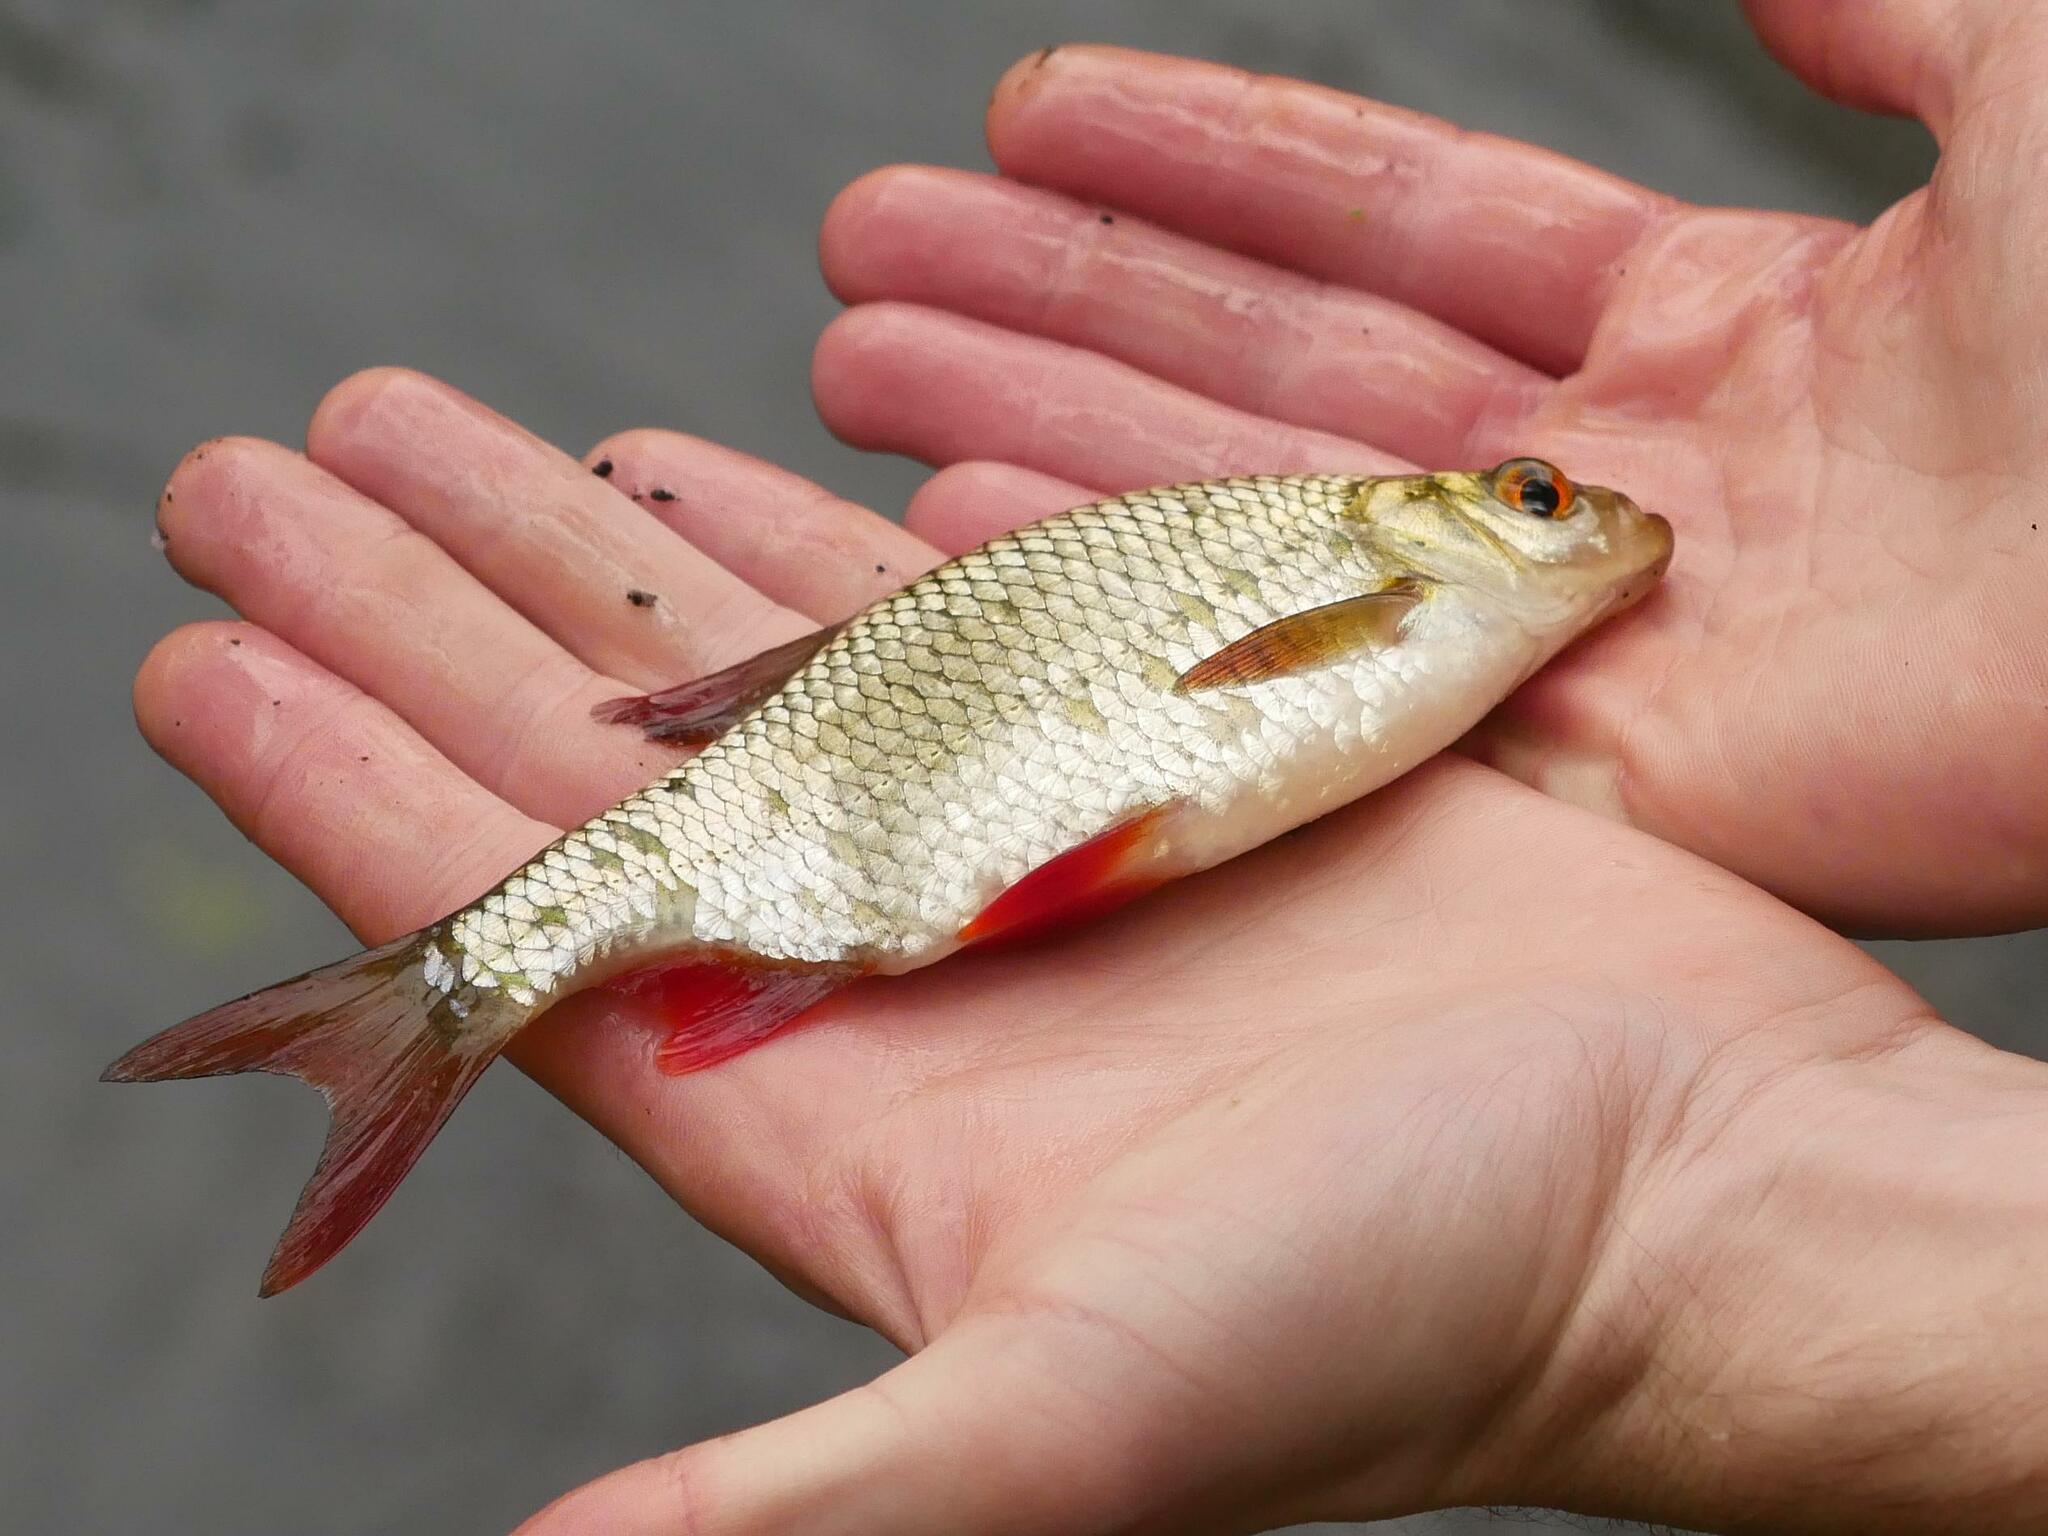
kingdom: Animalia
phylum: Chordata
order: Cypriniformes
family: Cyprinidae
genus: Scardinius
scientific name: Scardinius erythrophthalmus
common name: Rudd
